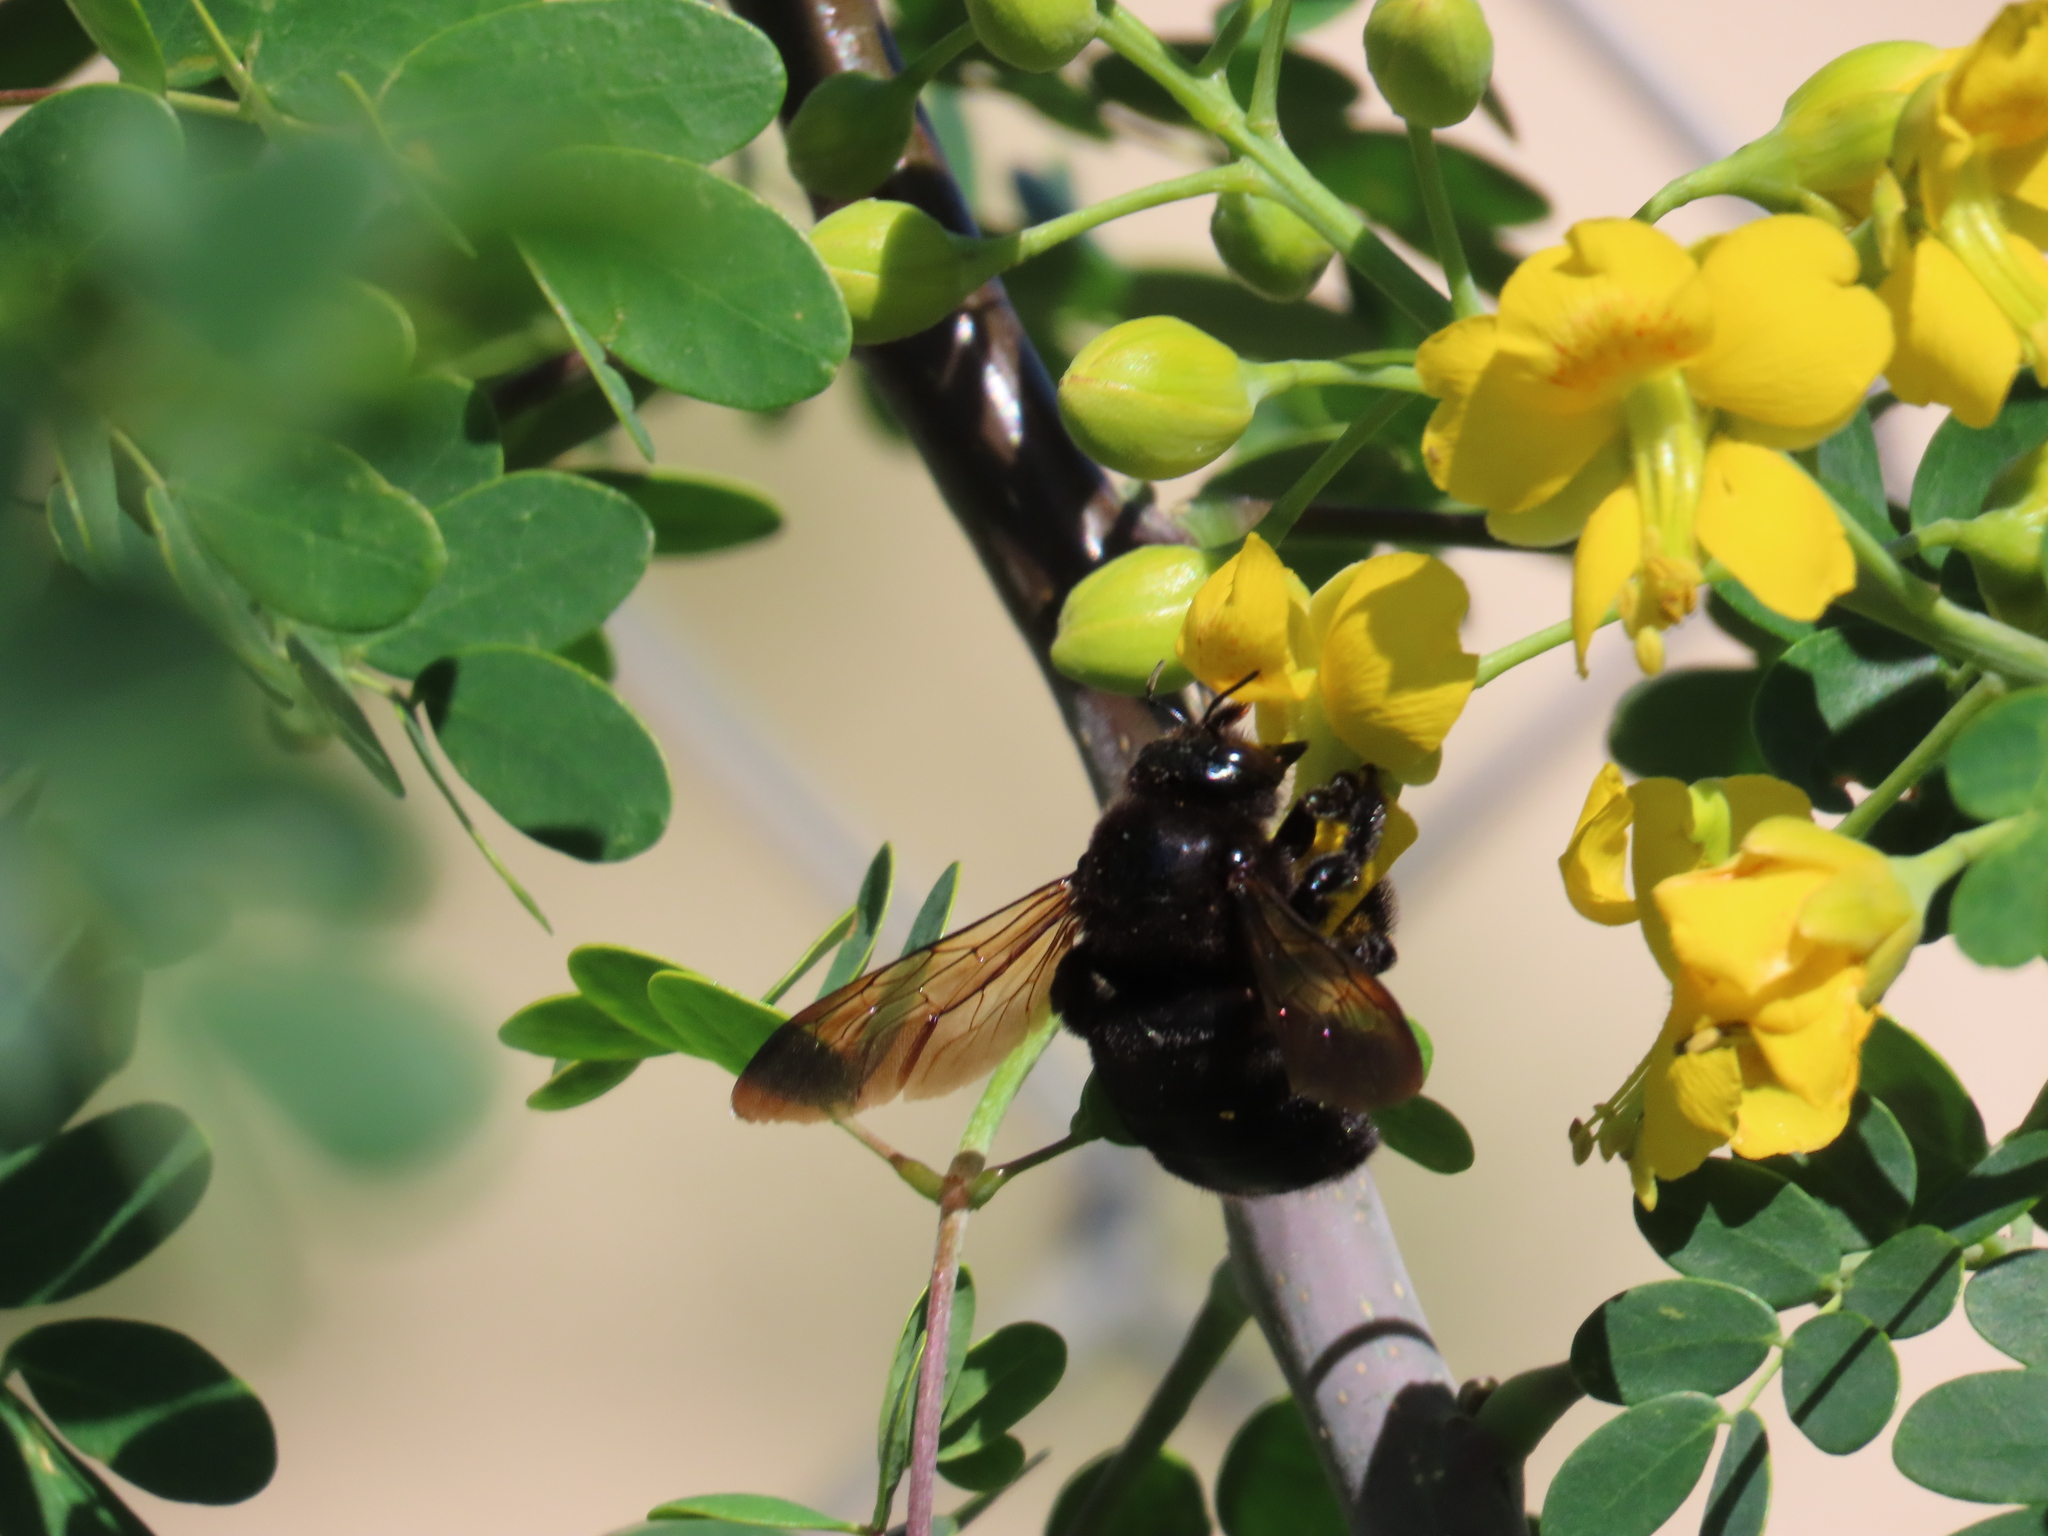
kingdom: Animalia
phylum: Arthropoda
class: Insecta
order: Hymenoptera
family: Apidae
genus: Xylocopa
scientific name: Xylocopa sonorina
